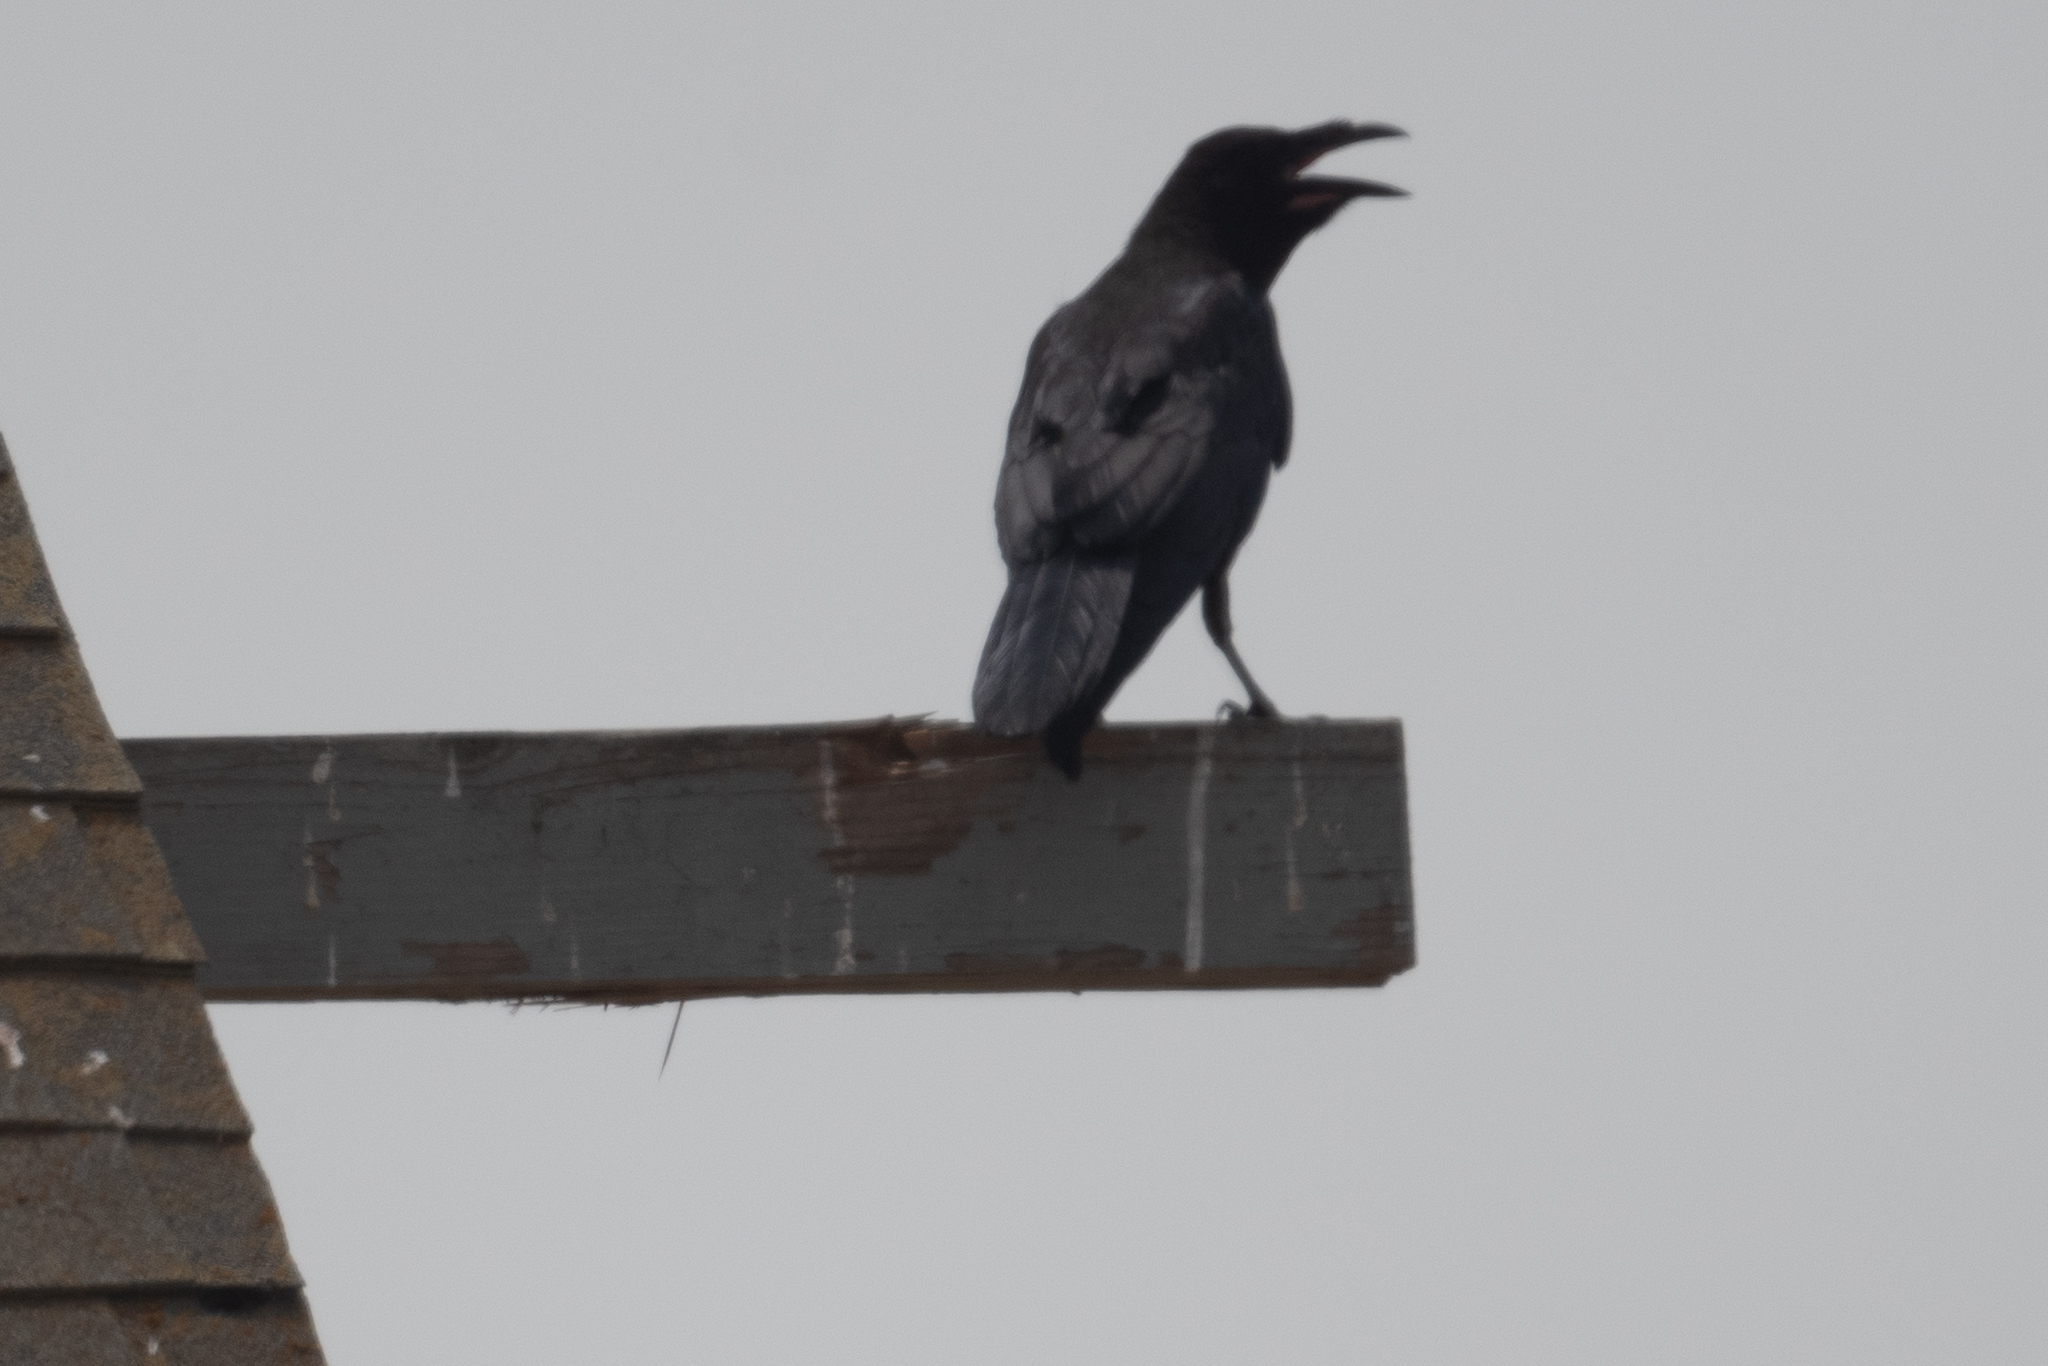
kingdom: Animalia
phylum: Chordata
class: Aves
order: Passeriformes
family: Corvidae
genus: Corvus
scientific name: Corvus corax
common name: Common raven
